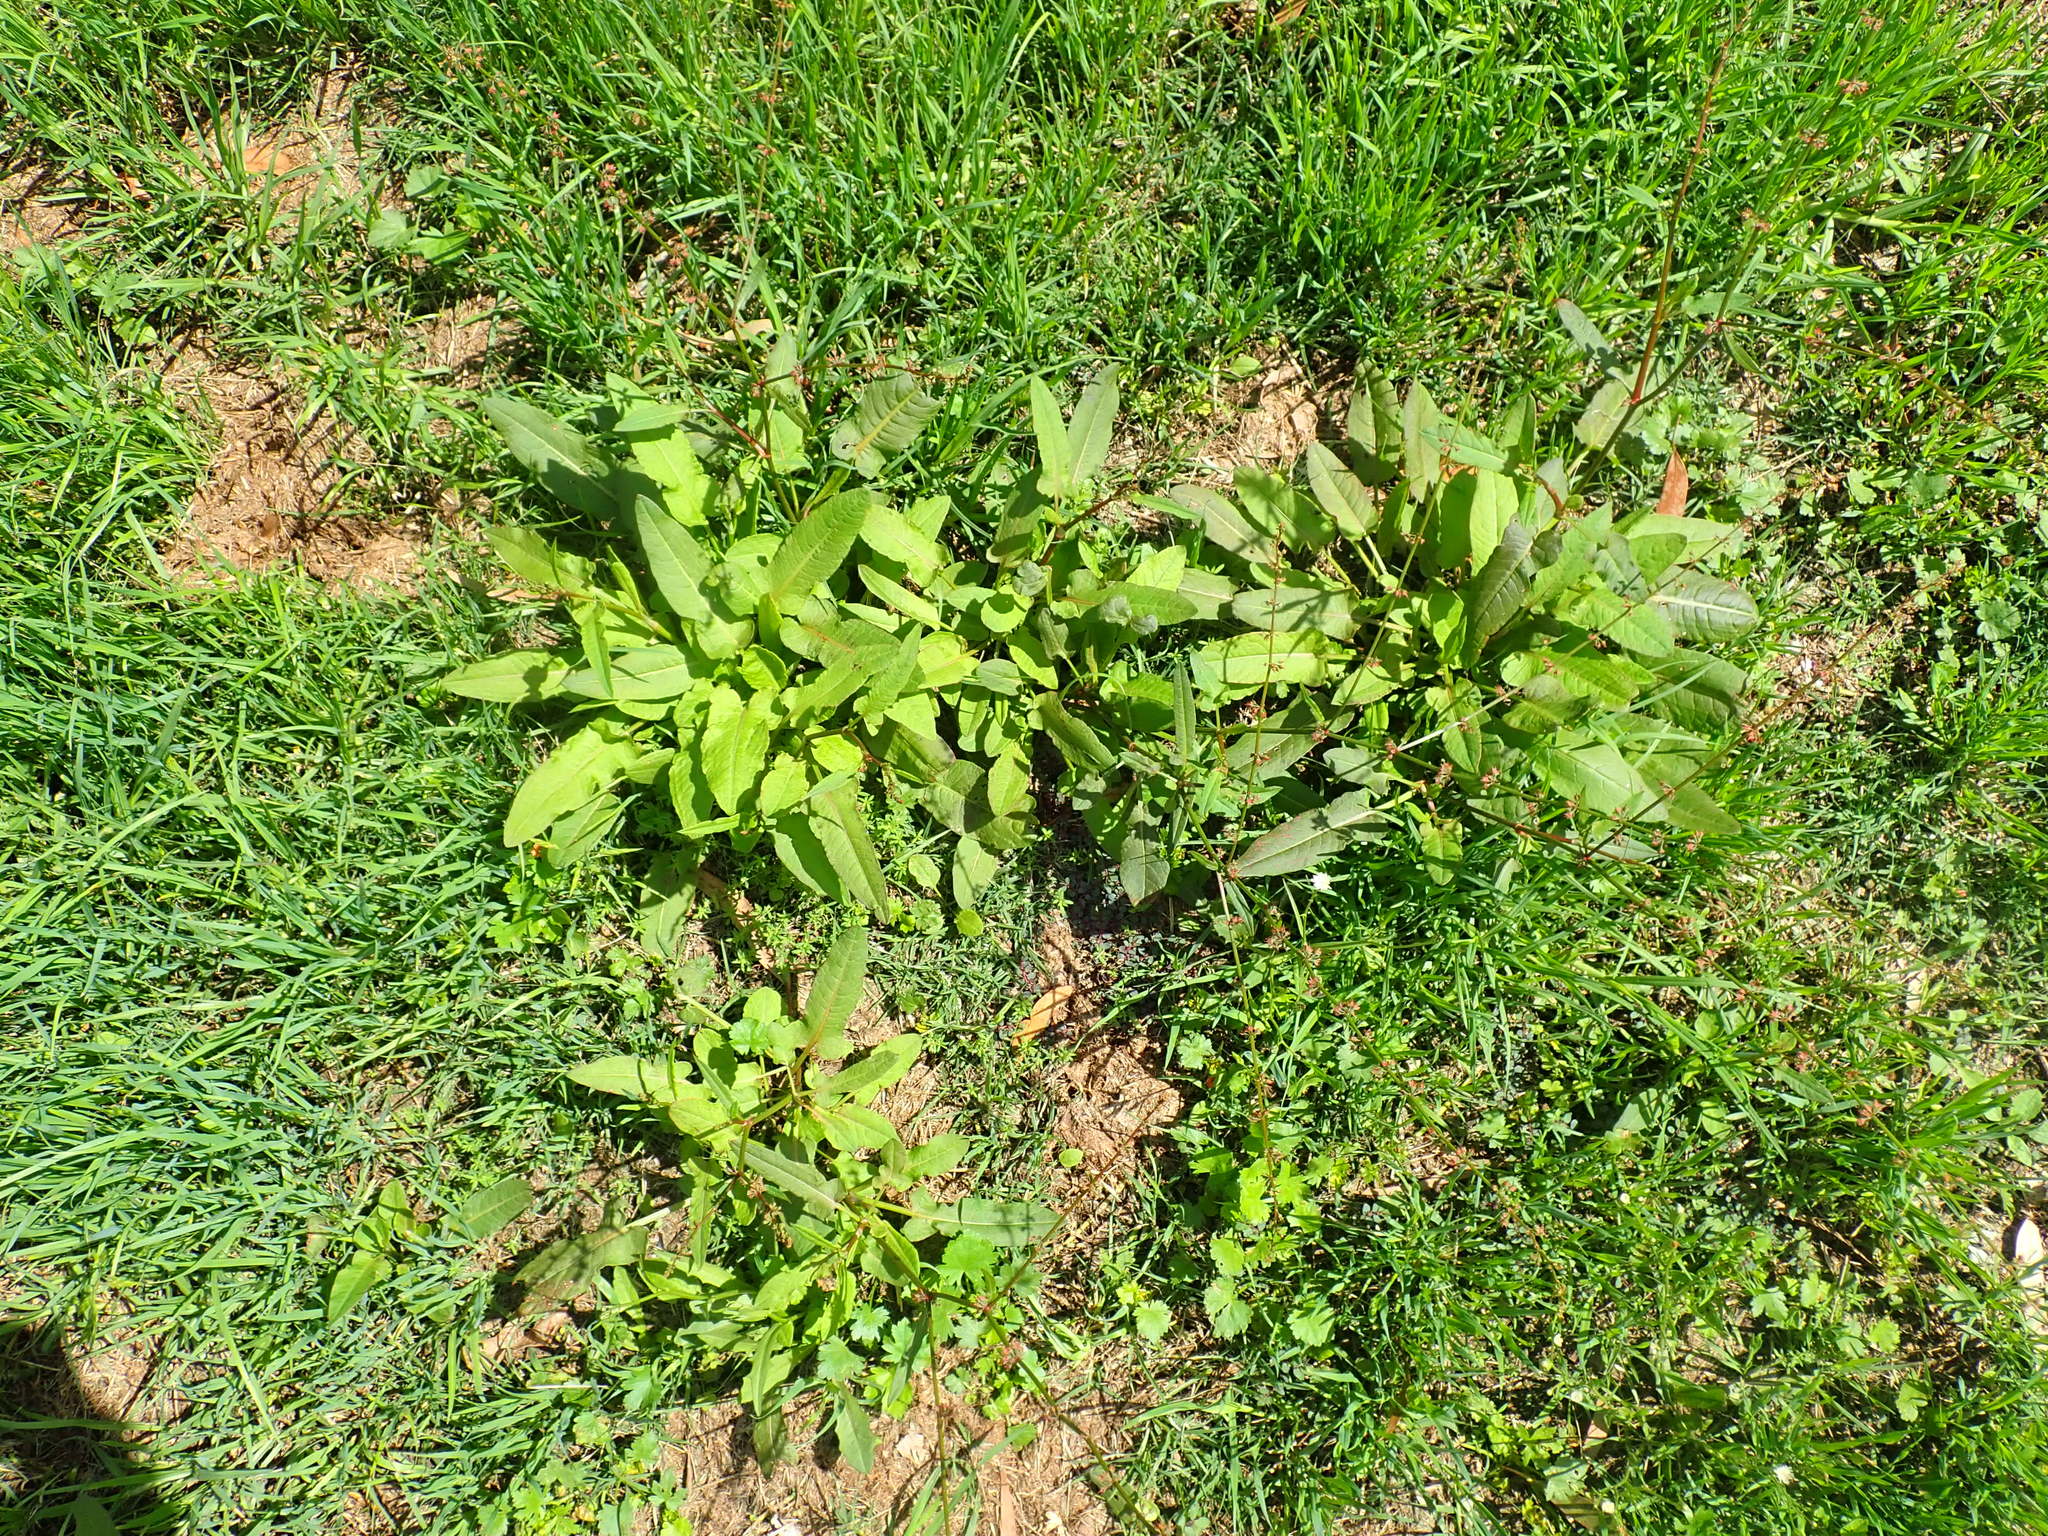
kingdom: Plantae
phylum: Tracheophyta
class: Magnoliopsida
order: Caryophyllales
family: Polygonaceae
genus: Rumex
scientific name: Rumex brownii
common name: Hooked dock
